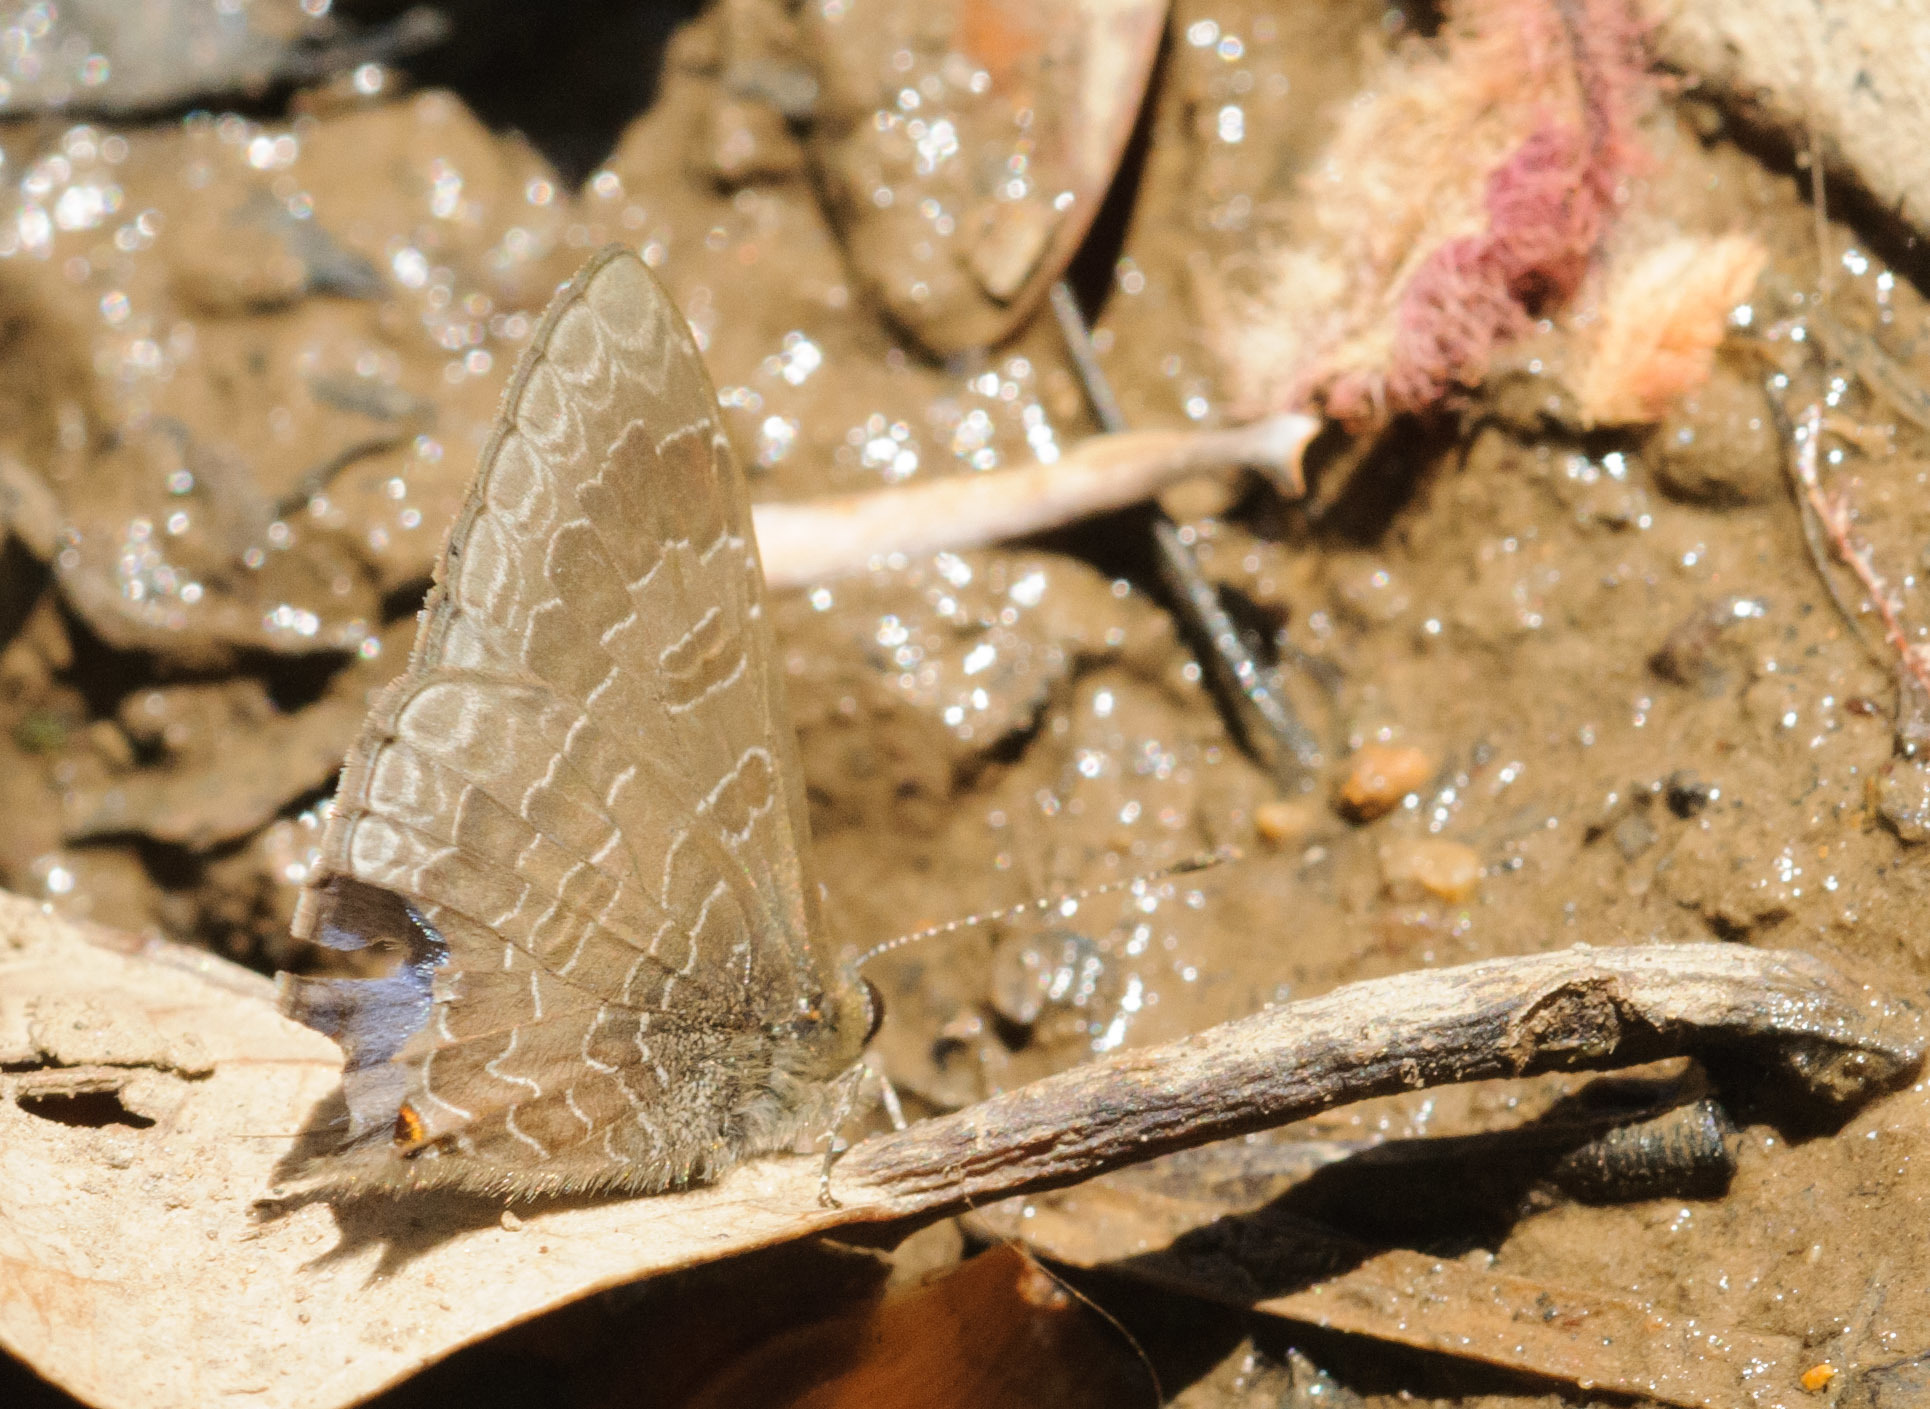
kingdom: Animalia
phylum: Arthropoda
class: Insecta
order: Lepidoptera
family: Lycaenidae
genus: Erysichton
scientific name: Erysichton lineata
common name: Hairy line blue
